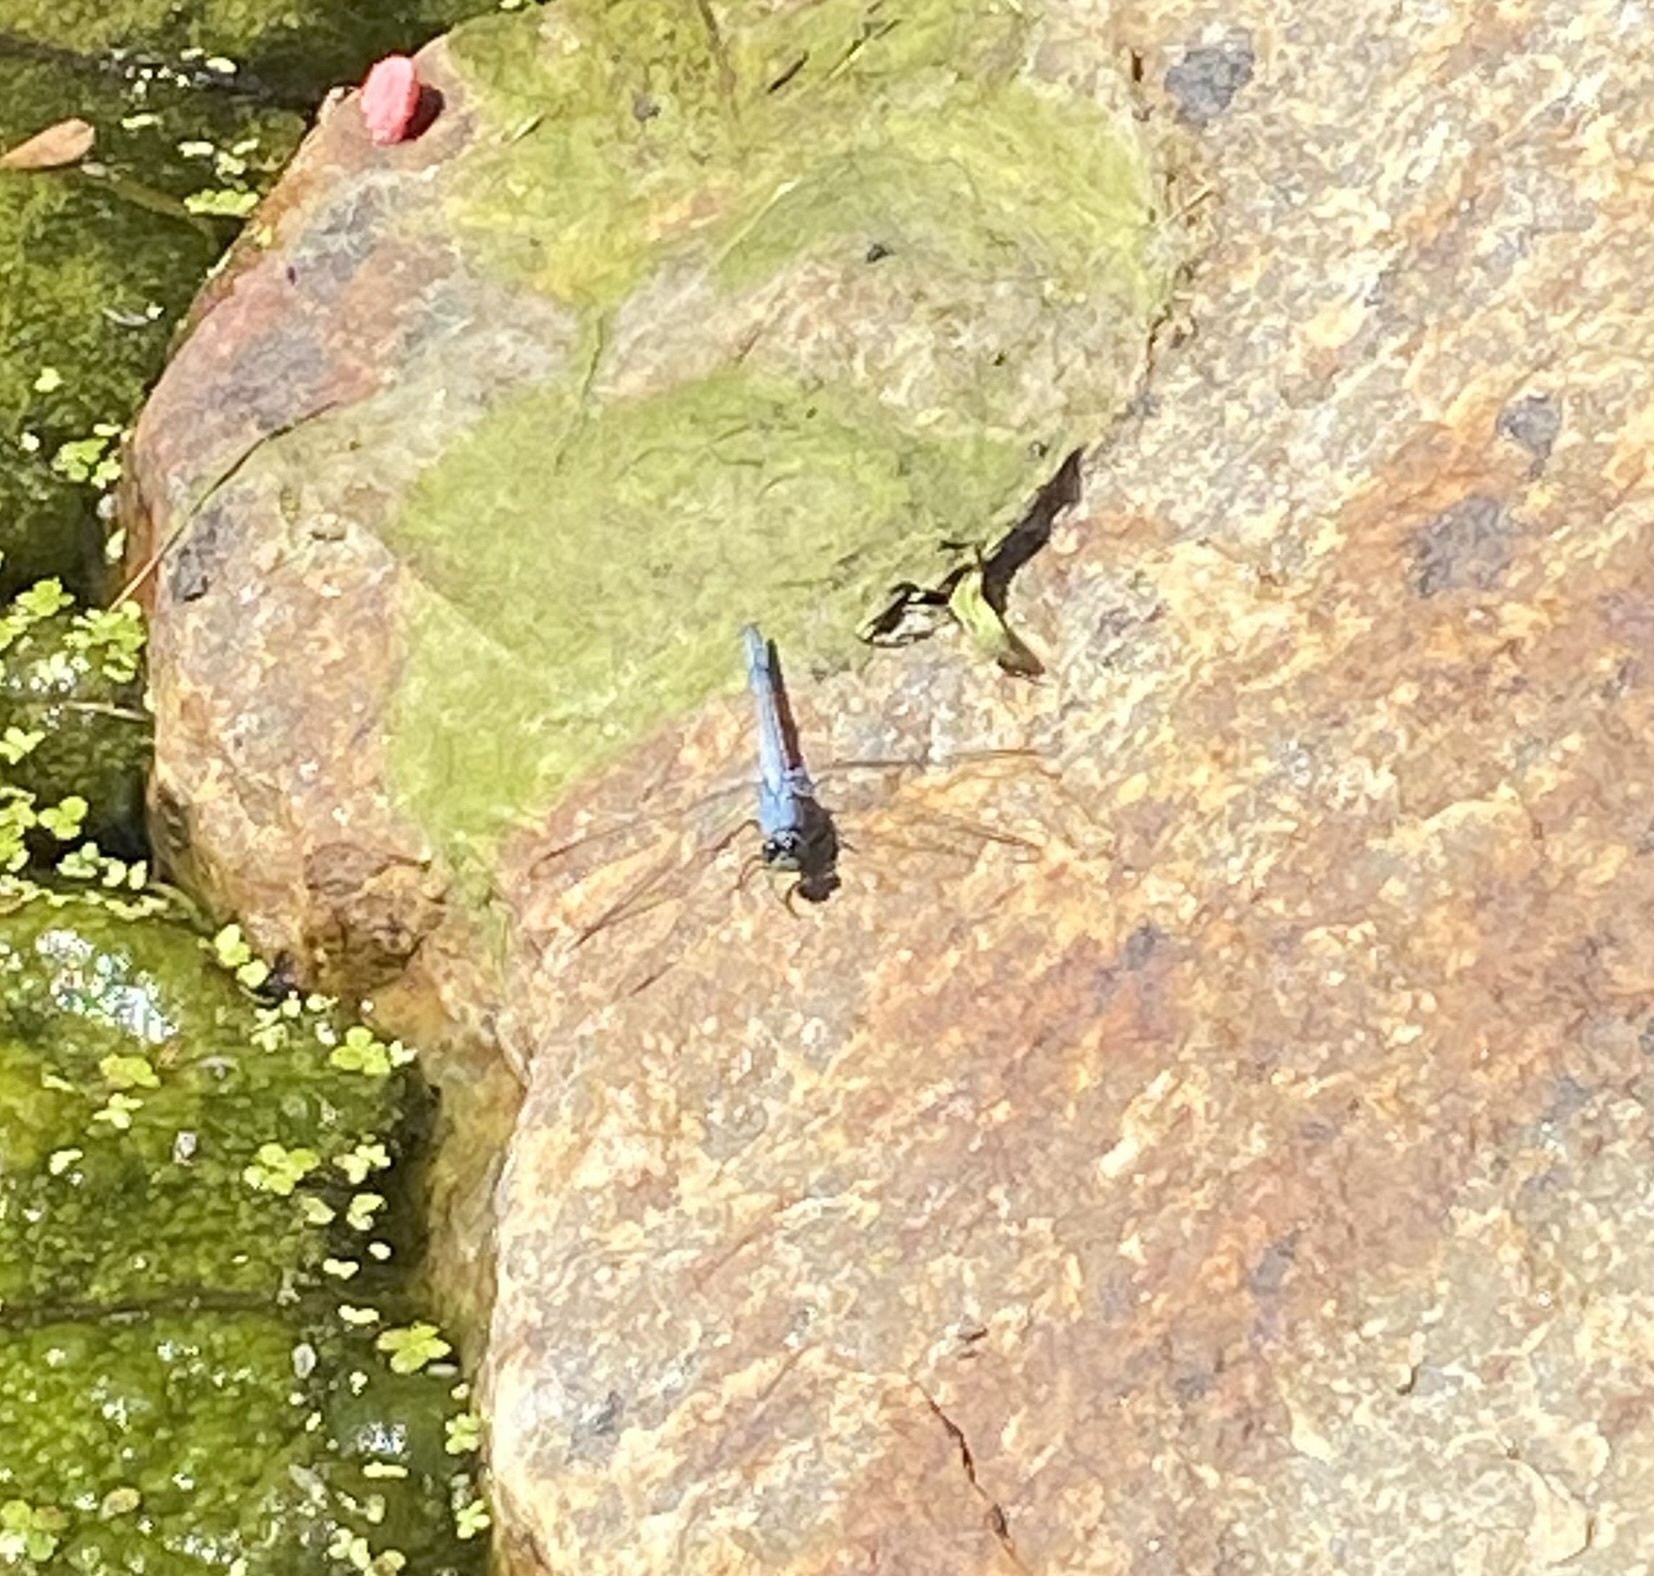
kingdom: Animalia
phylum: Arthropoda
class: Insecta
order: Odonata
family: Libellulidae
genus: Erythemis
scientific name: Erythemis simplicicollis
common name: Eastern pondhawk
